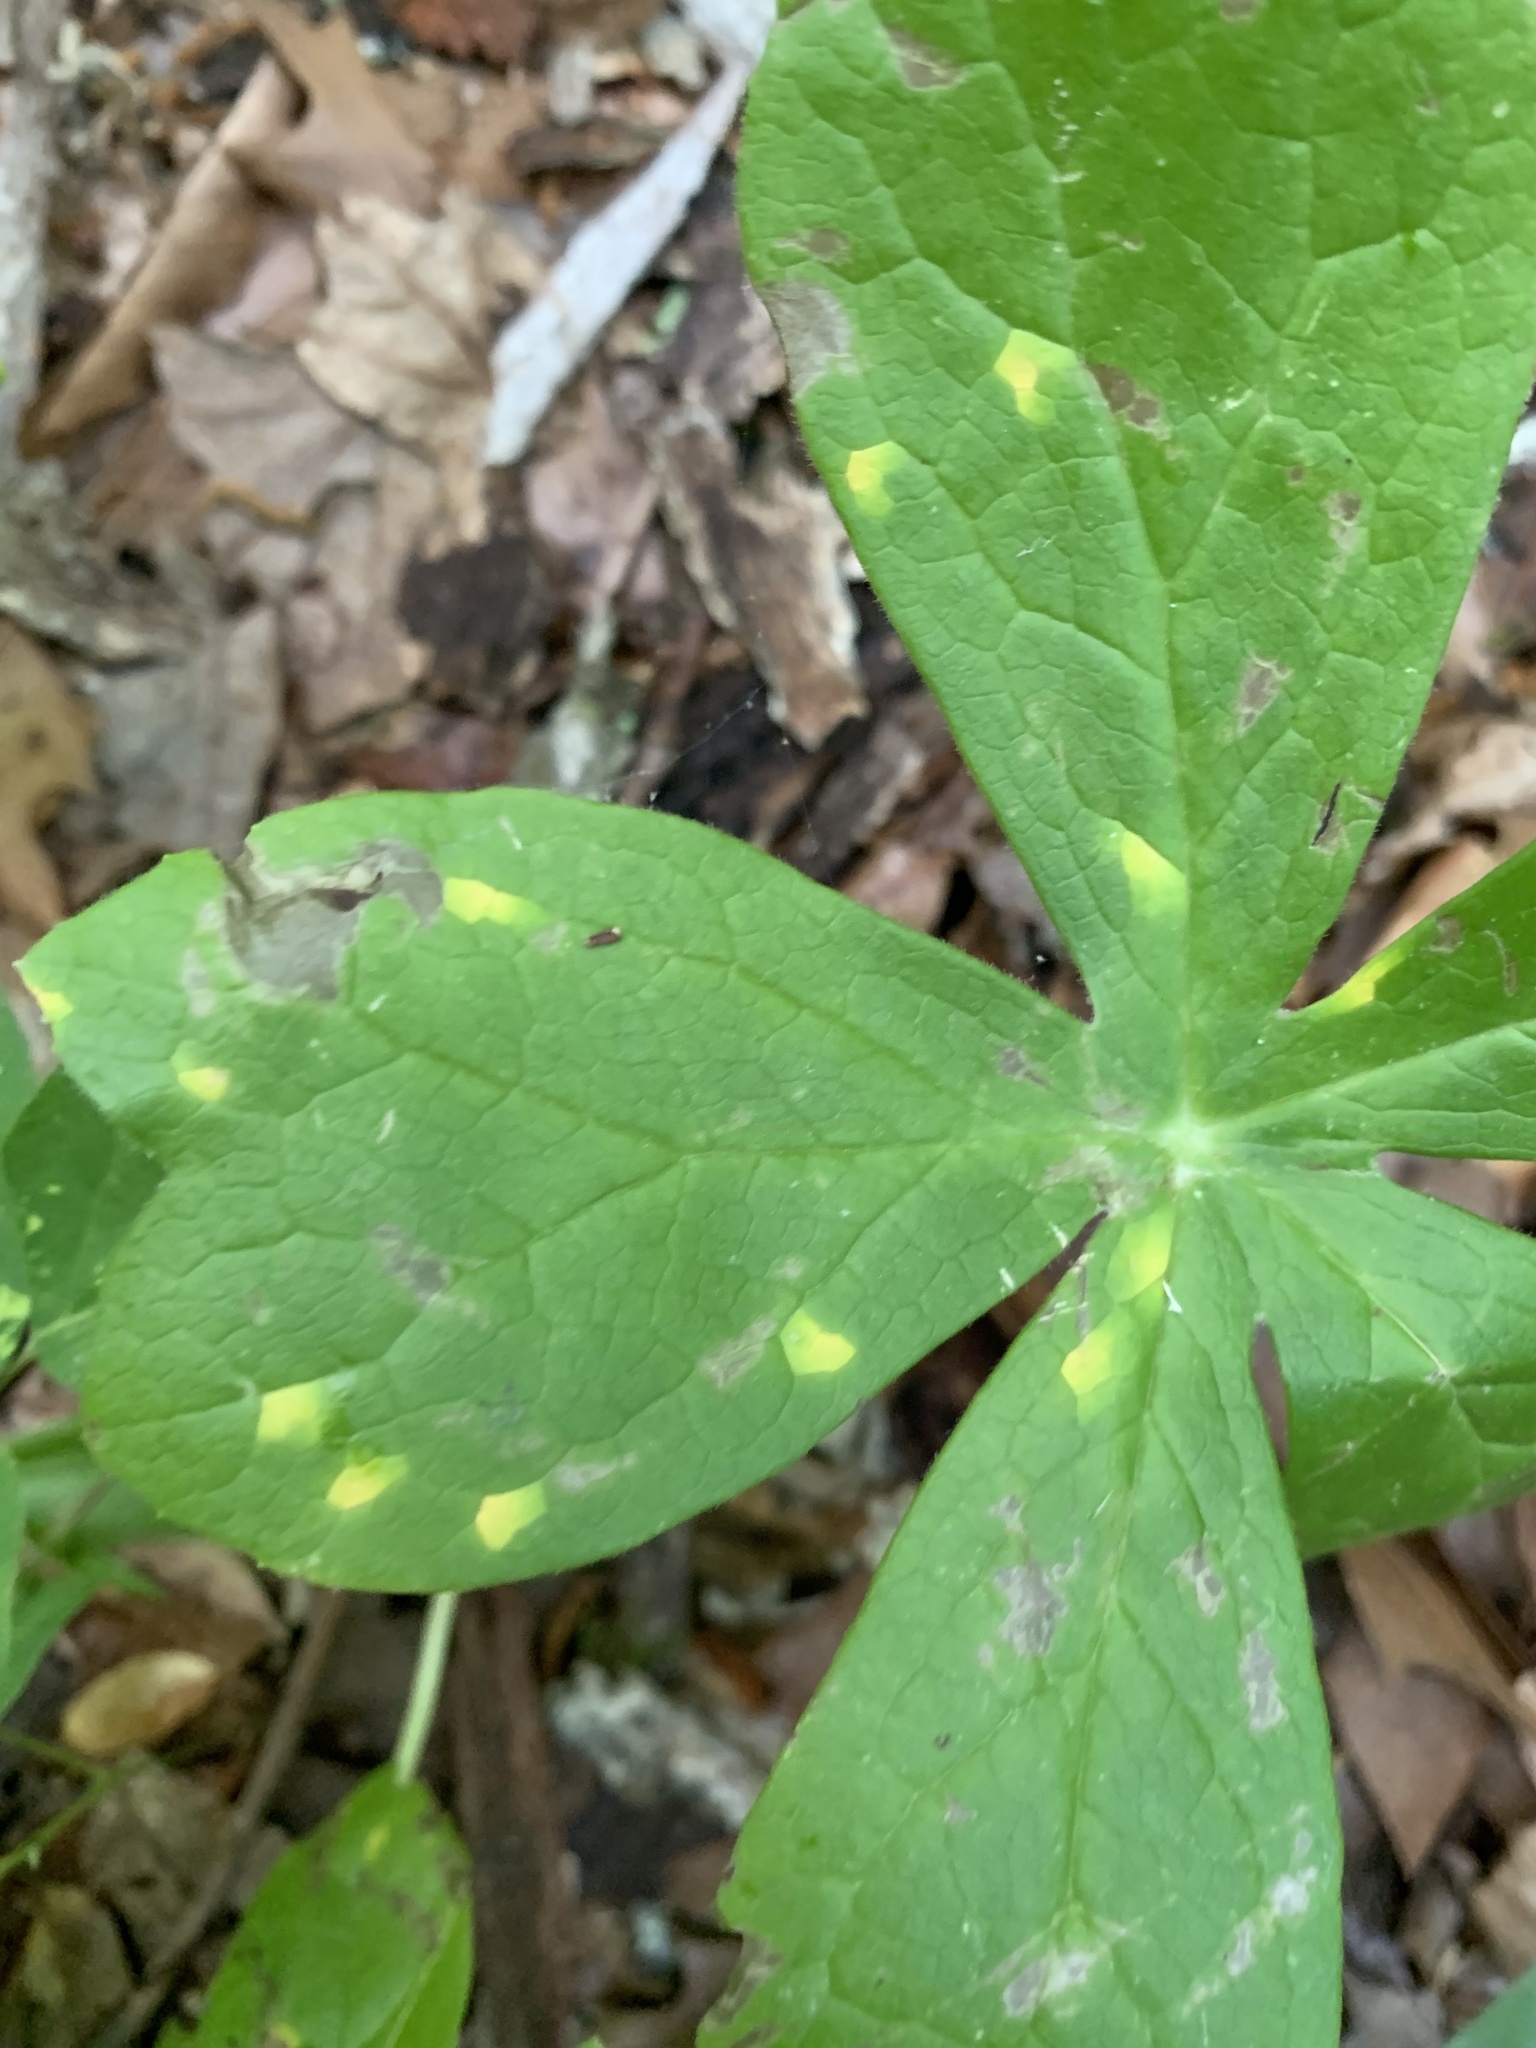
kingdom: Fungi
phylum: Basidiomycota
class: Pucciniomycetes
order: Pucciniales
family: Pucciniaceae
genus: Puccinia
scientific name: Puccinia podophylli
